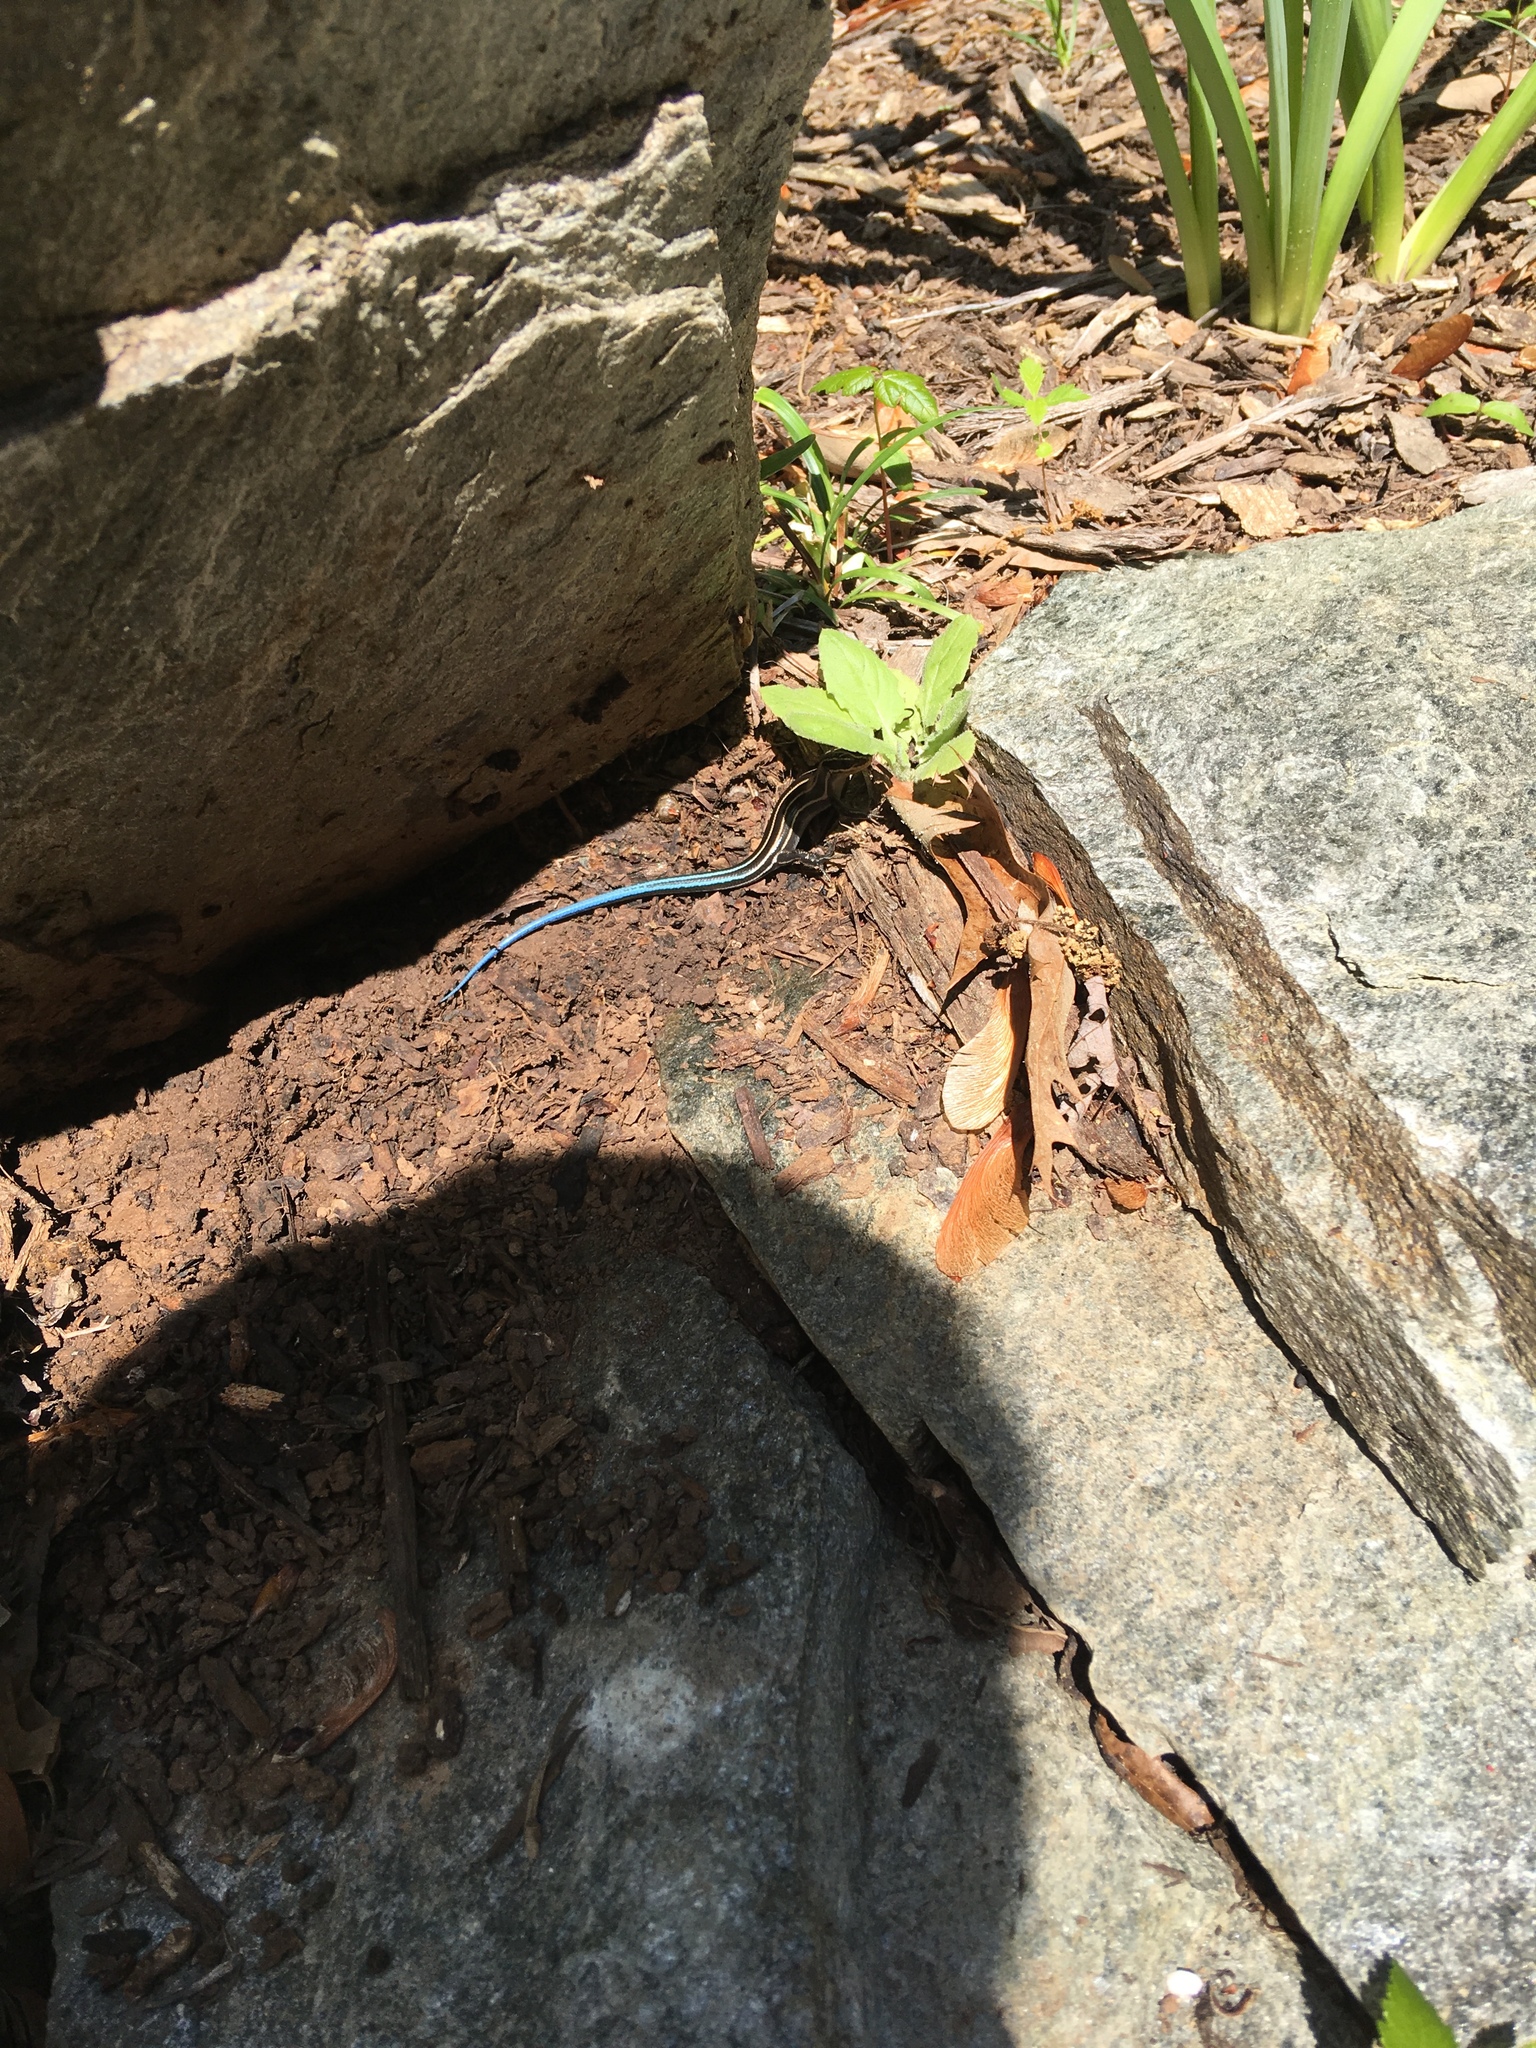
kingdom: Animalia
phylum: Chordata
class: Squamata
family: Scincidae
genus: Plestiodon
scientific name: Plestiodon fasciatus
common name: Five-lined skink
